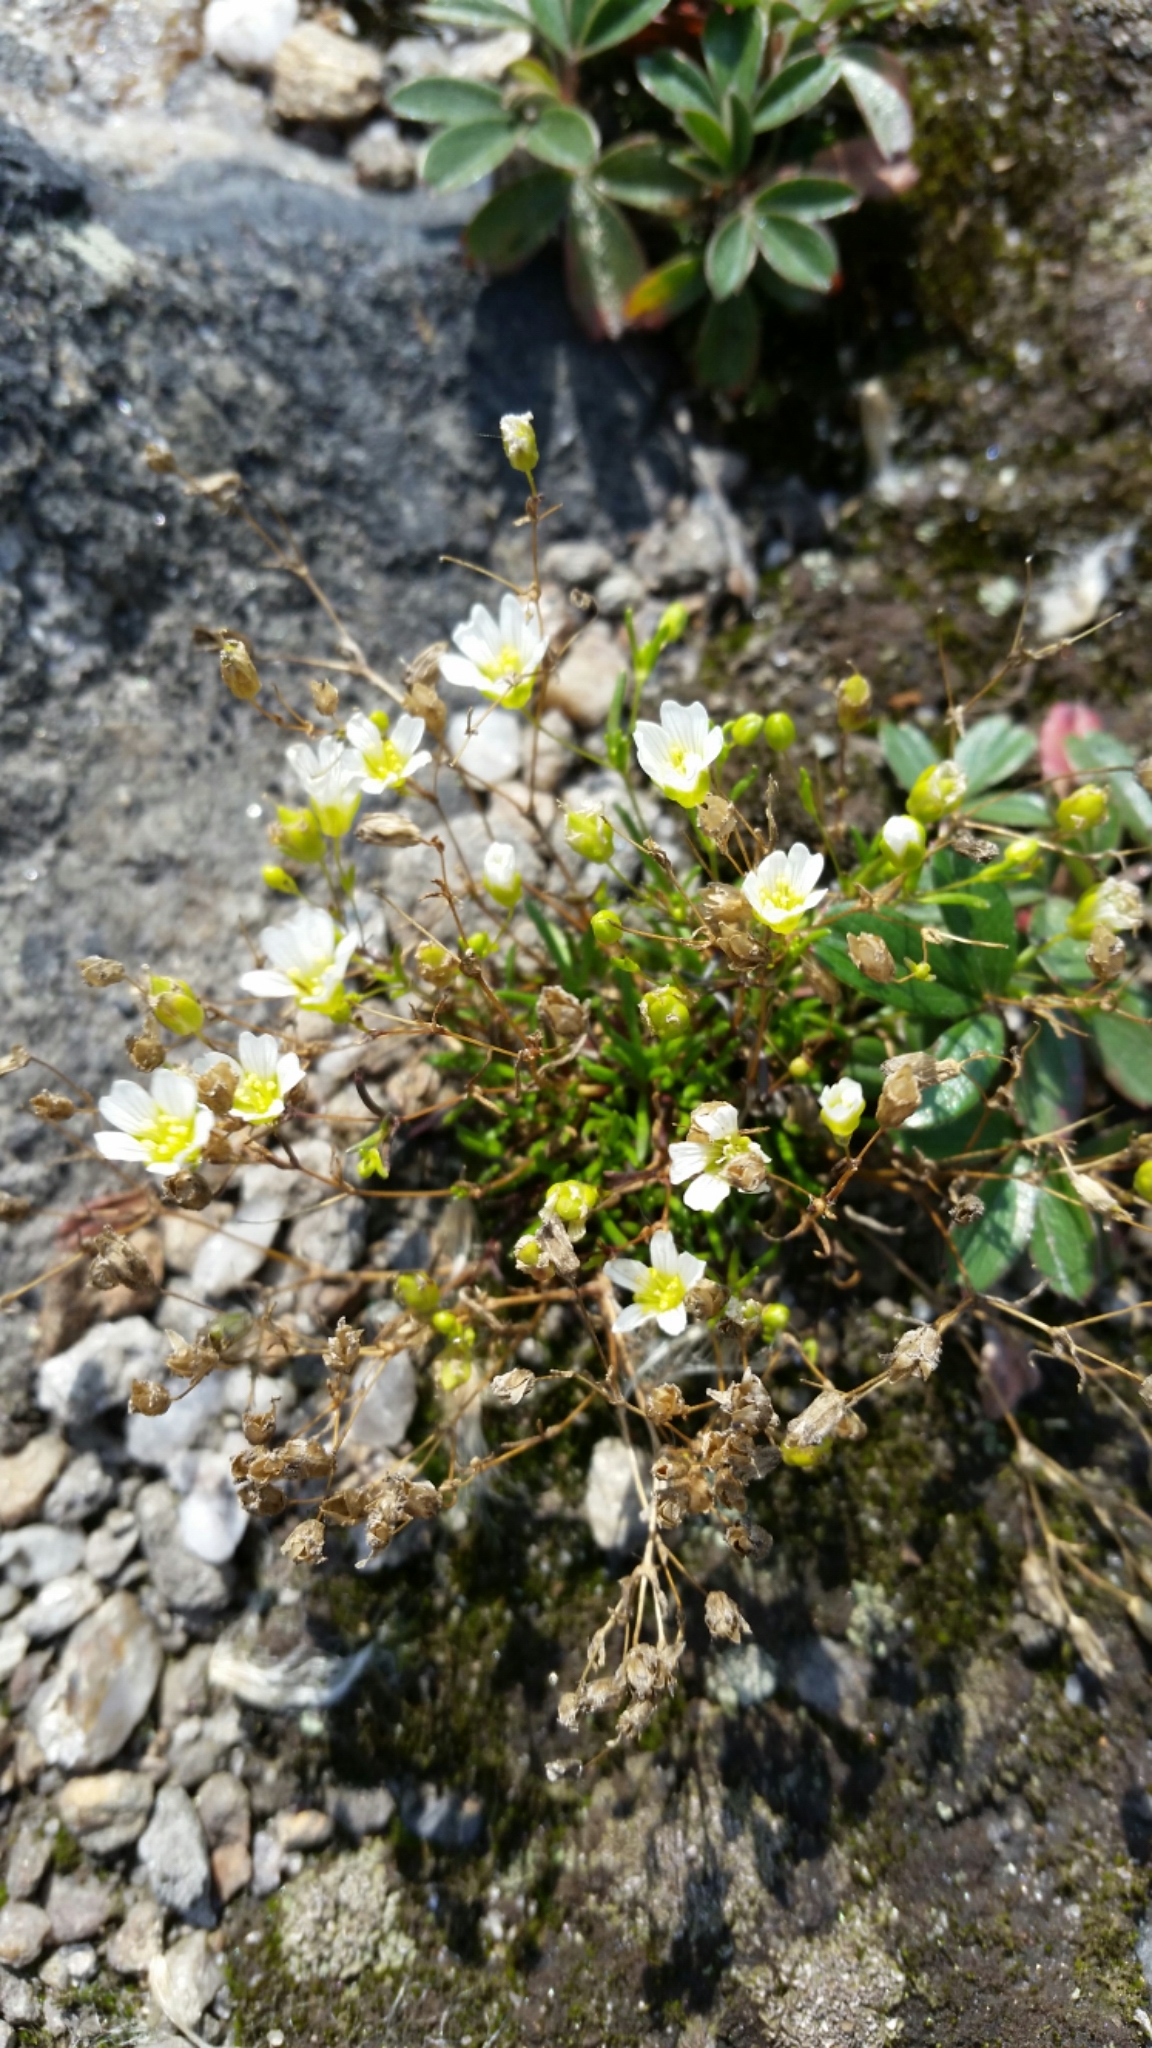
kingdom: Plantae
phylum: Tracheophyta
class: Magnoliopsida
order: Caryophyllales
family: Caryophyllaceae
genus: Geocarpon
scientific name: Geocarpon groenlandicum
